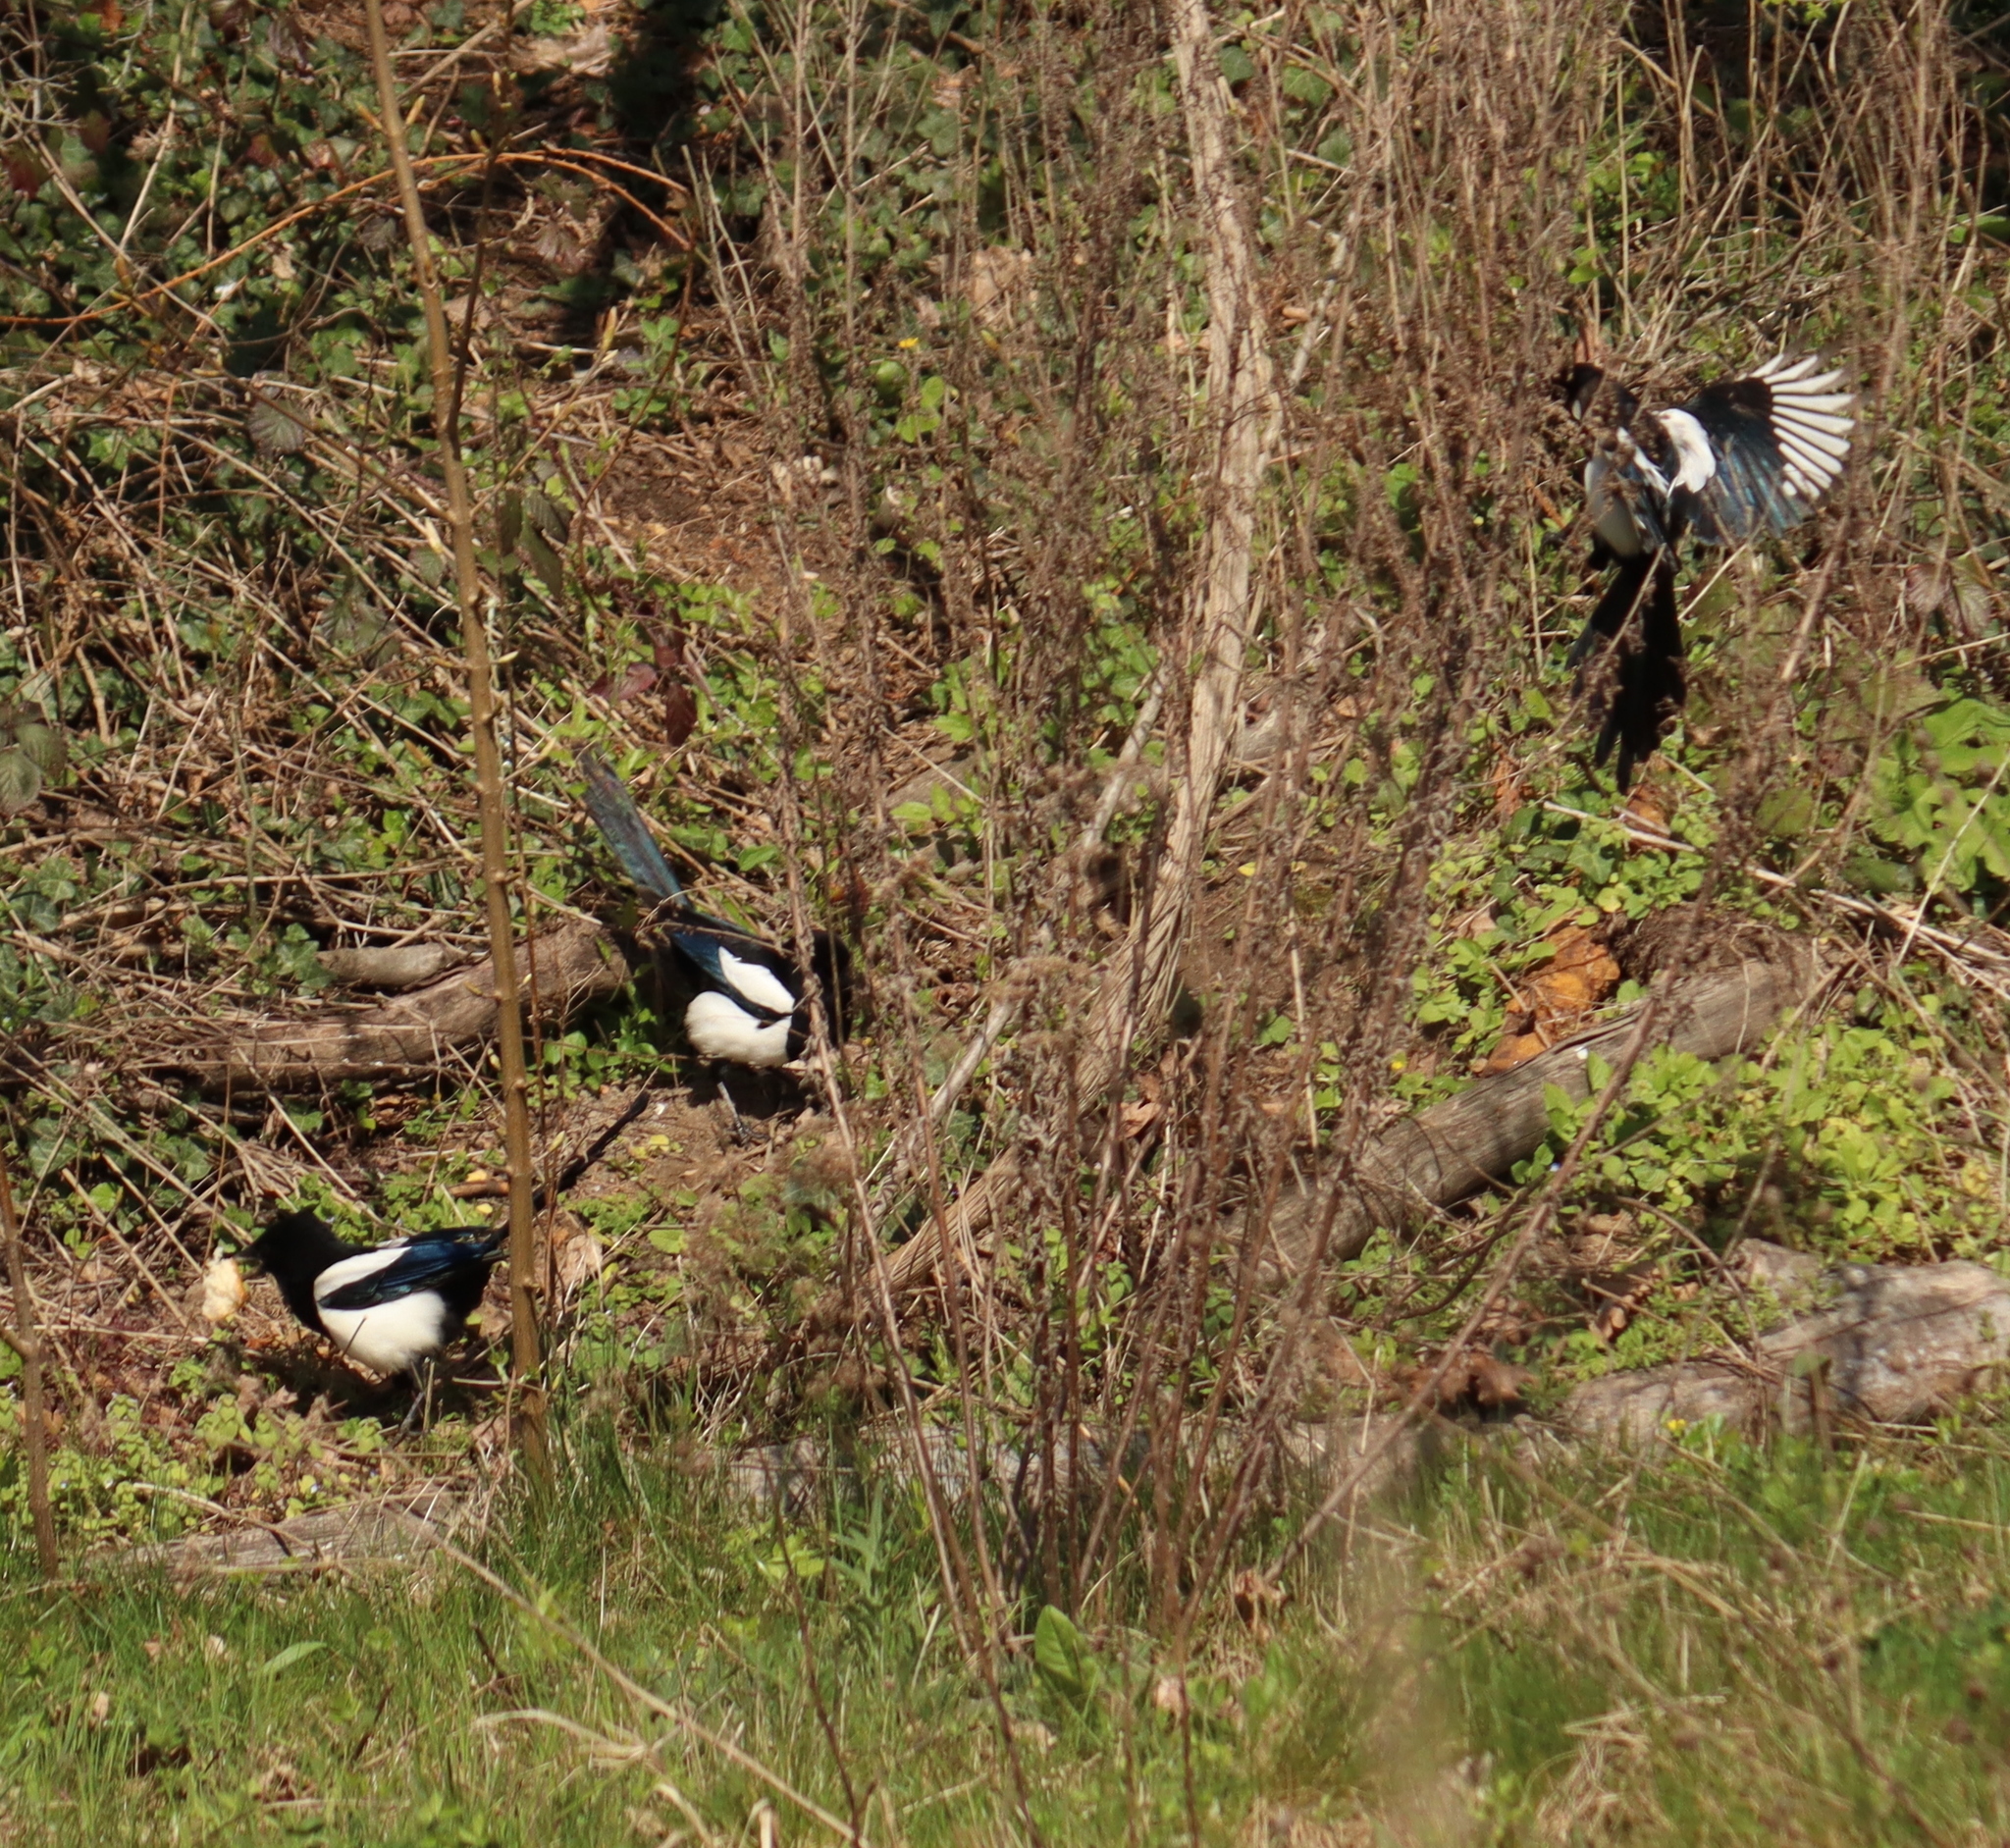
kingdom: Animalia
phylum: Chordata
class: Aves
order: Passeriformes
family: Corvidae
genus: Pica
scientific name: Pica pica
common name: Eurasian magpie
